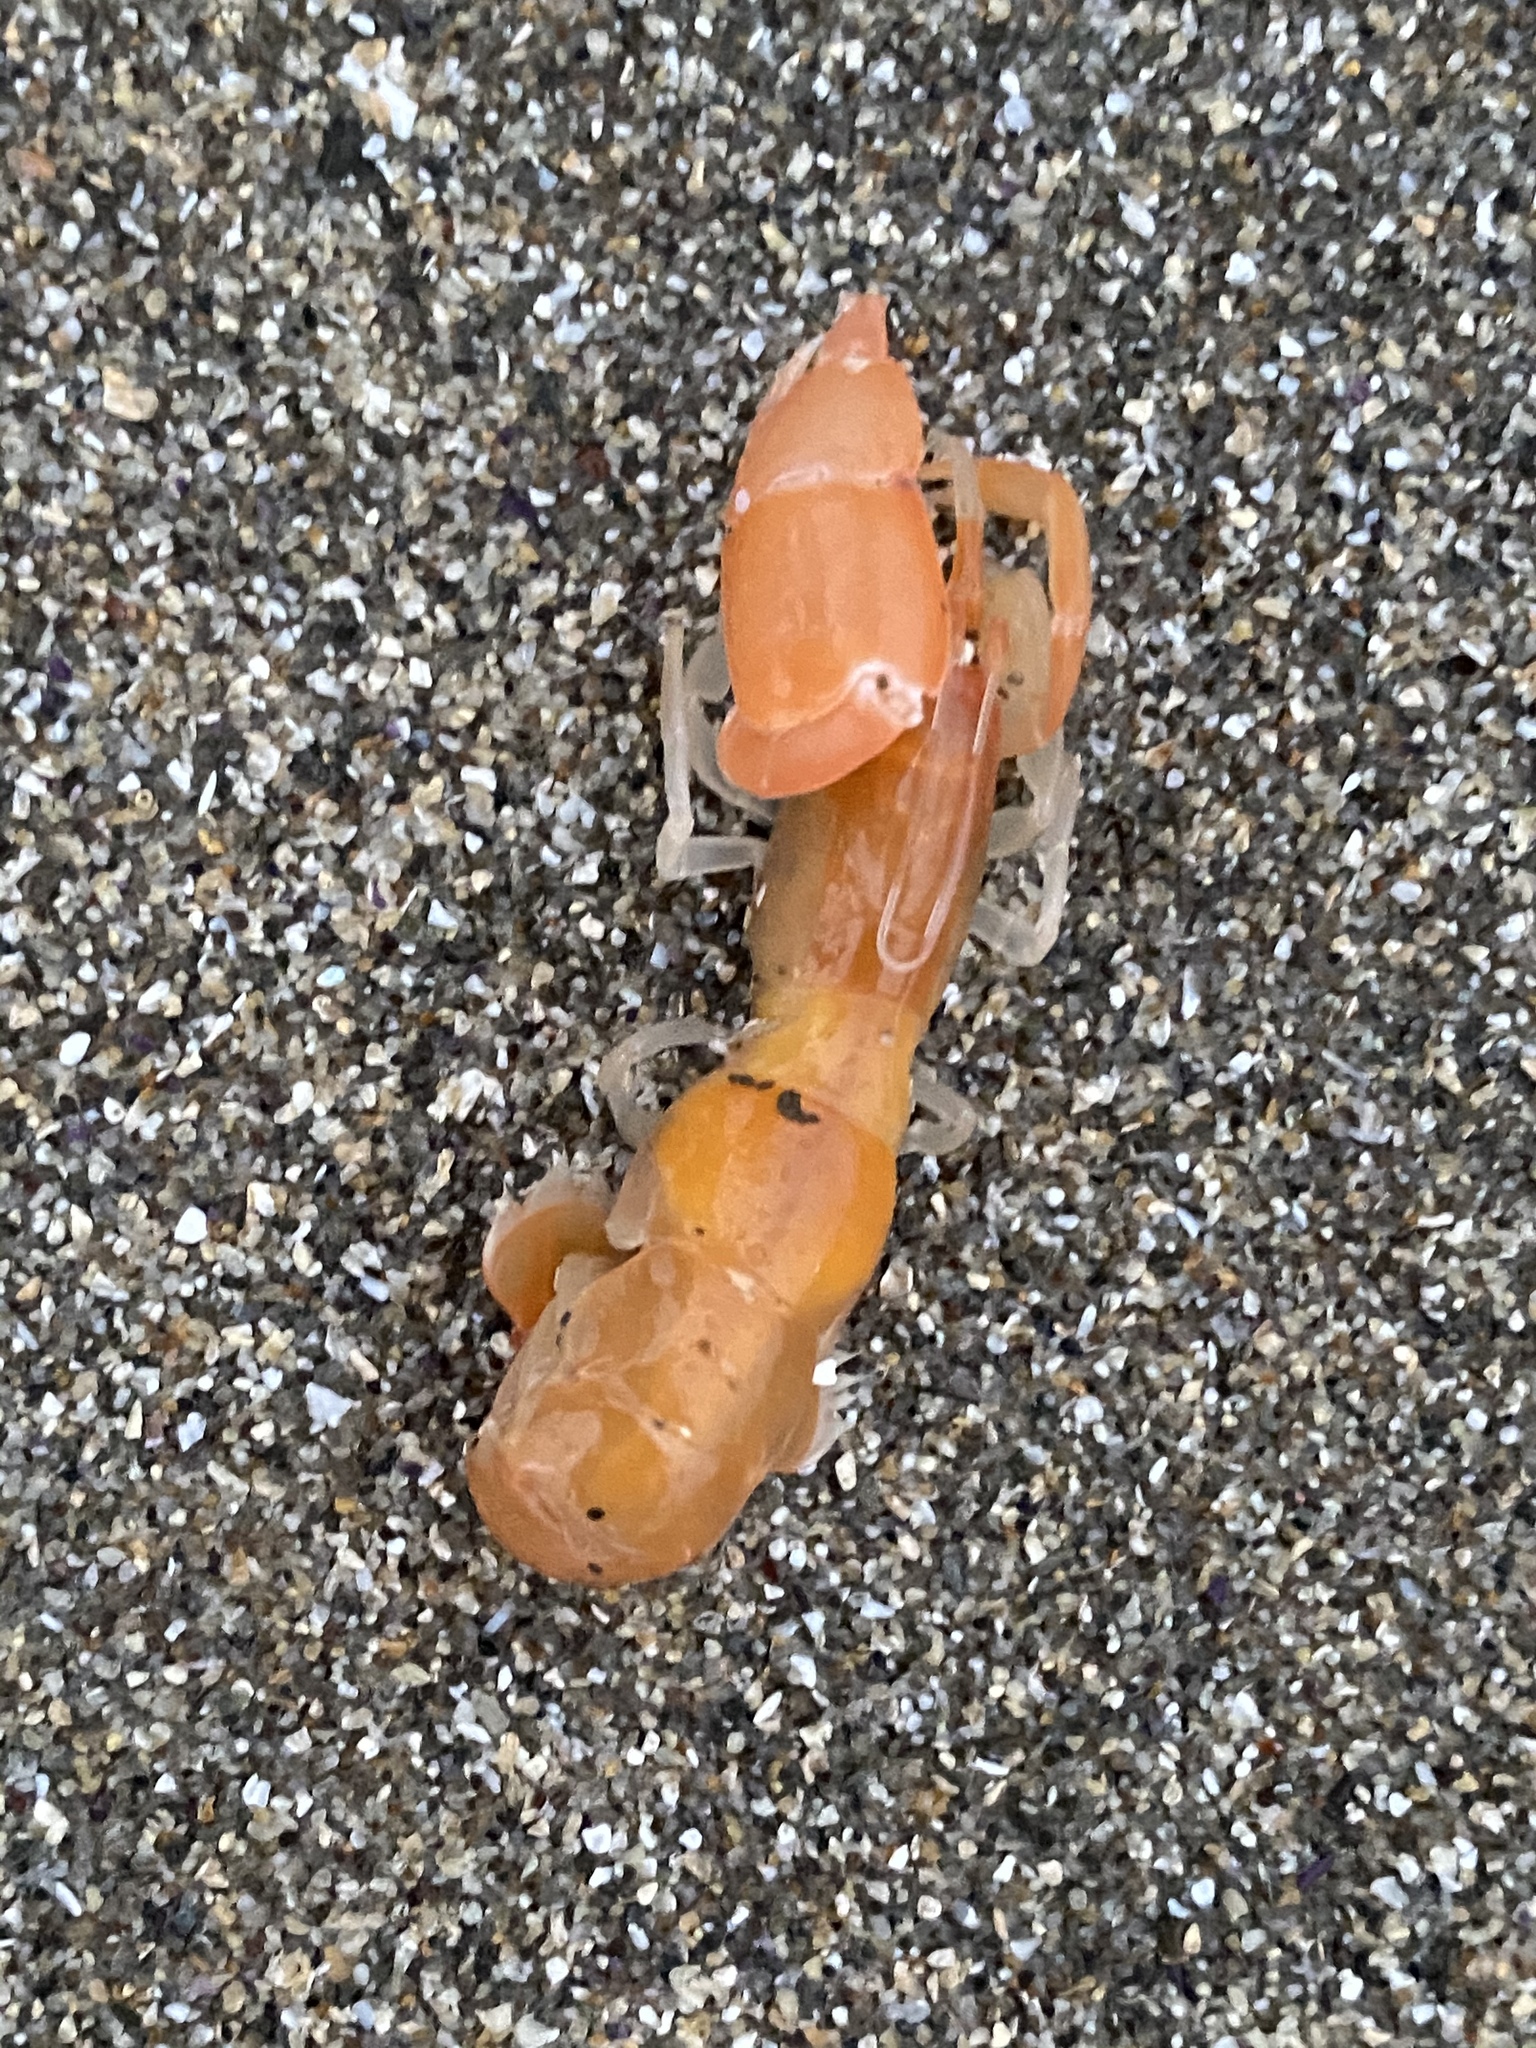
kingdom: Animalia
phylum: Arthropoda
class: Malacostraca
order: Decapoda
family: Callianassidae
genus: Neotrypaea
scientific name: Neotrypaea californiensis
